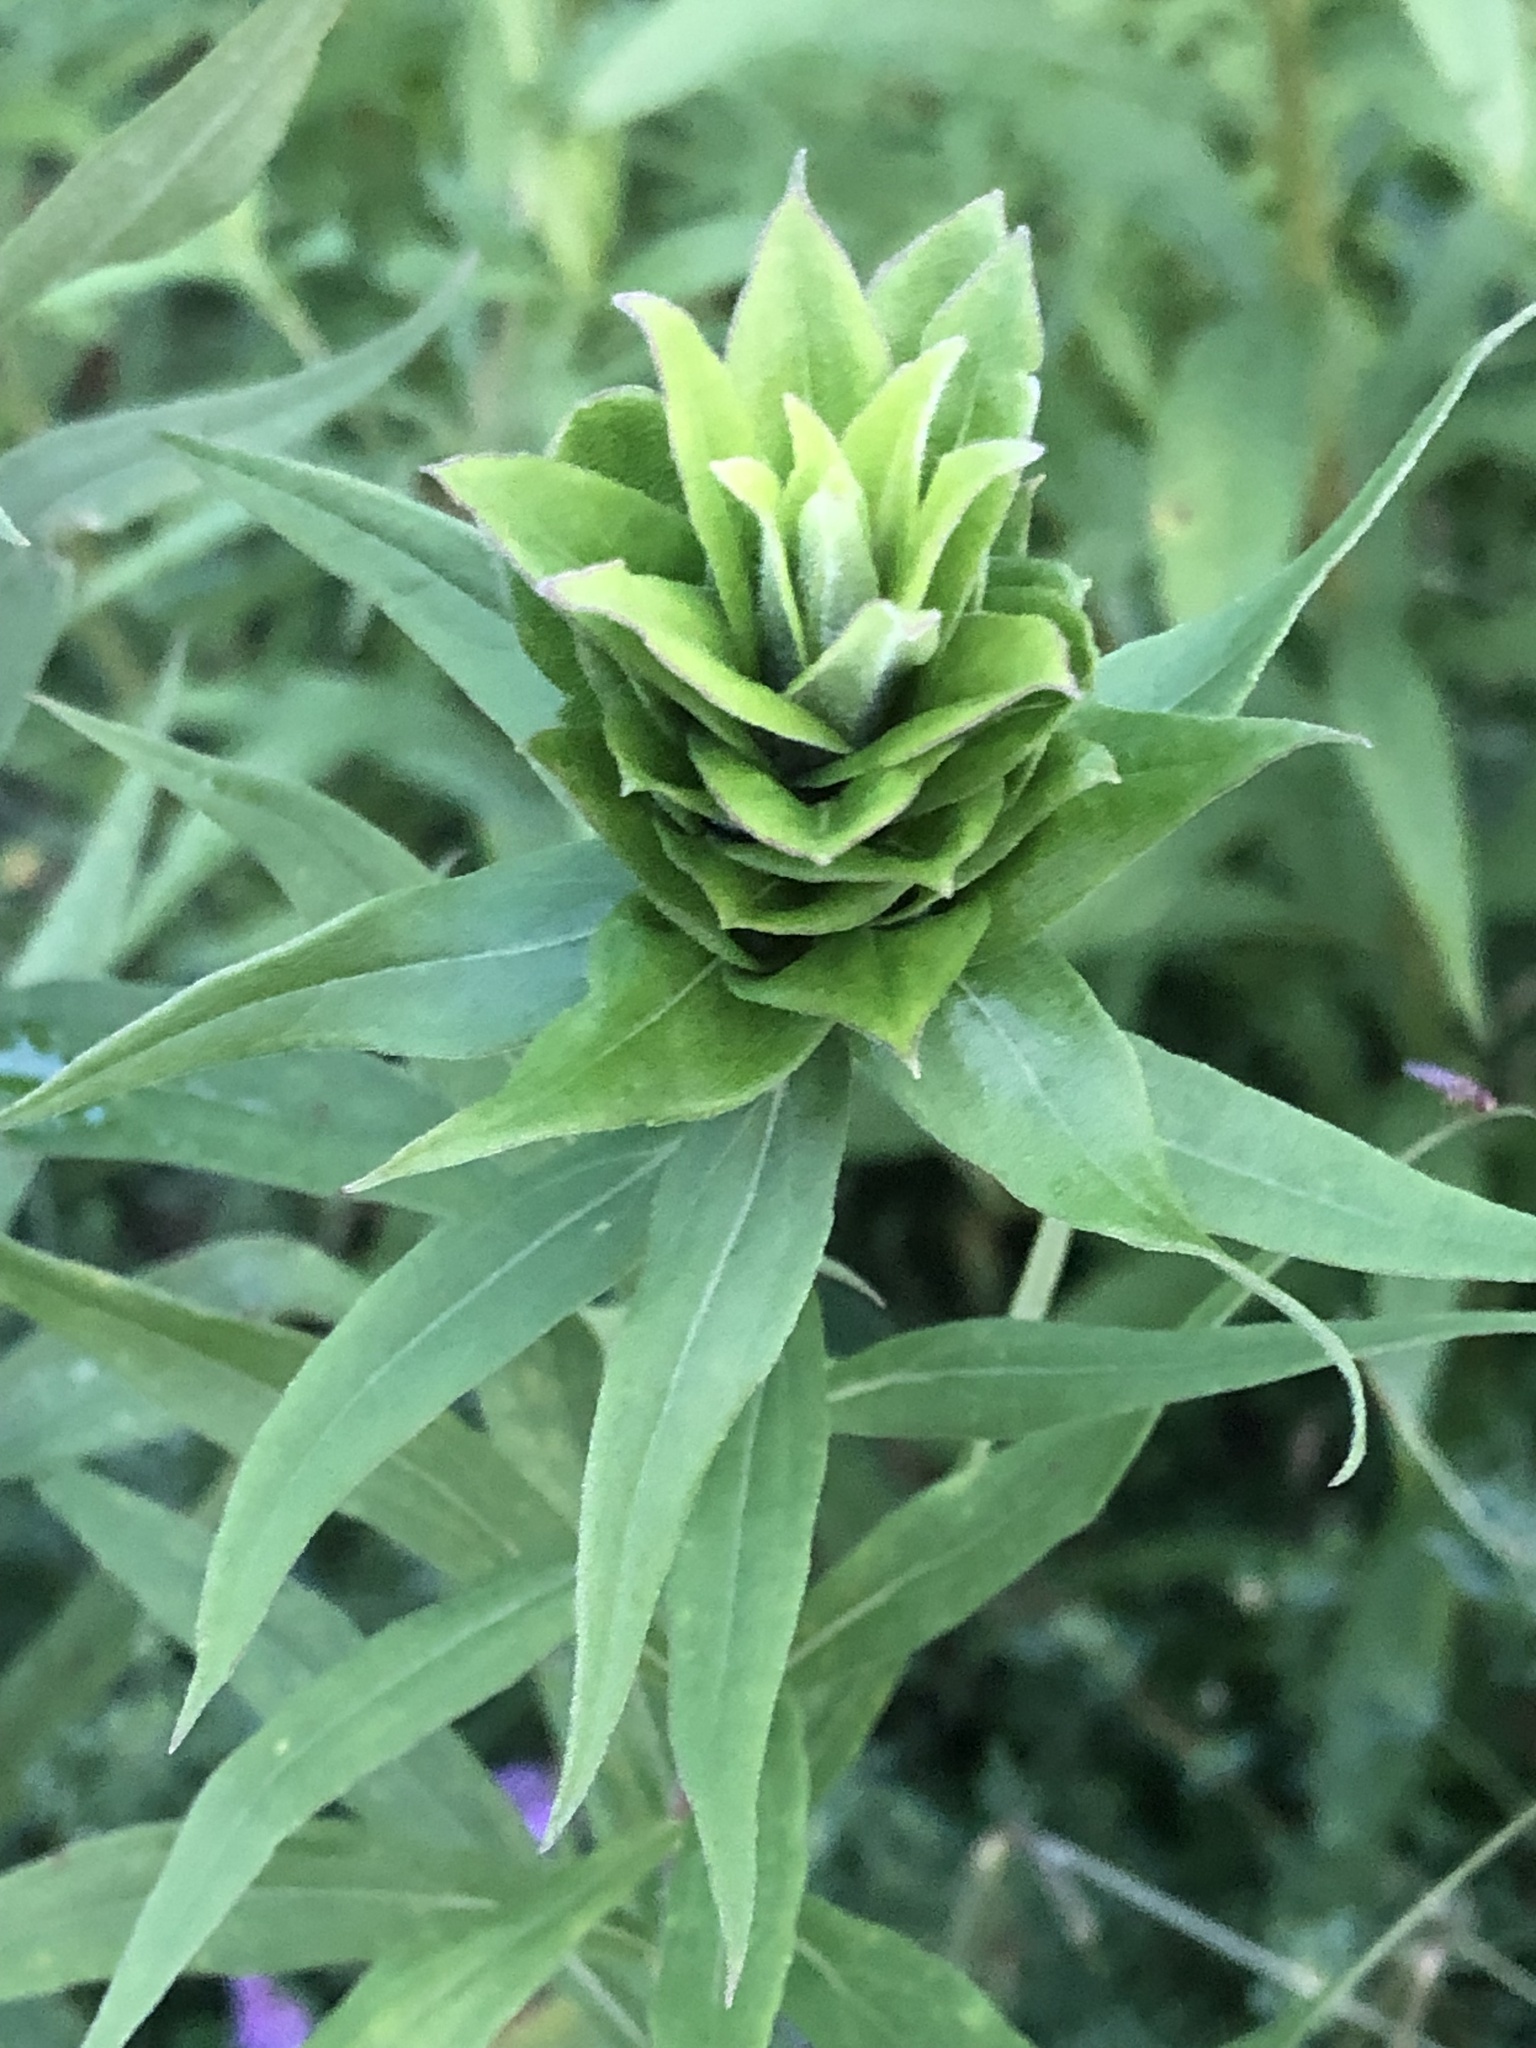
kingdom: Animalia
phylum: Arthropoda
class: Insecta
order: Diptera
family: Cecidomyiidae
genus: Rhopalomyia
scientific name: Rhopalomyia solidaginis
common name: Goldenrod bunch gall midge
